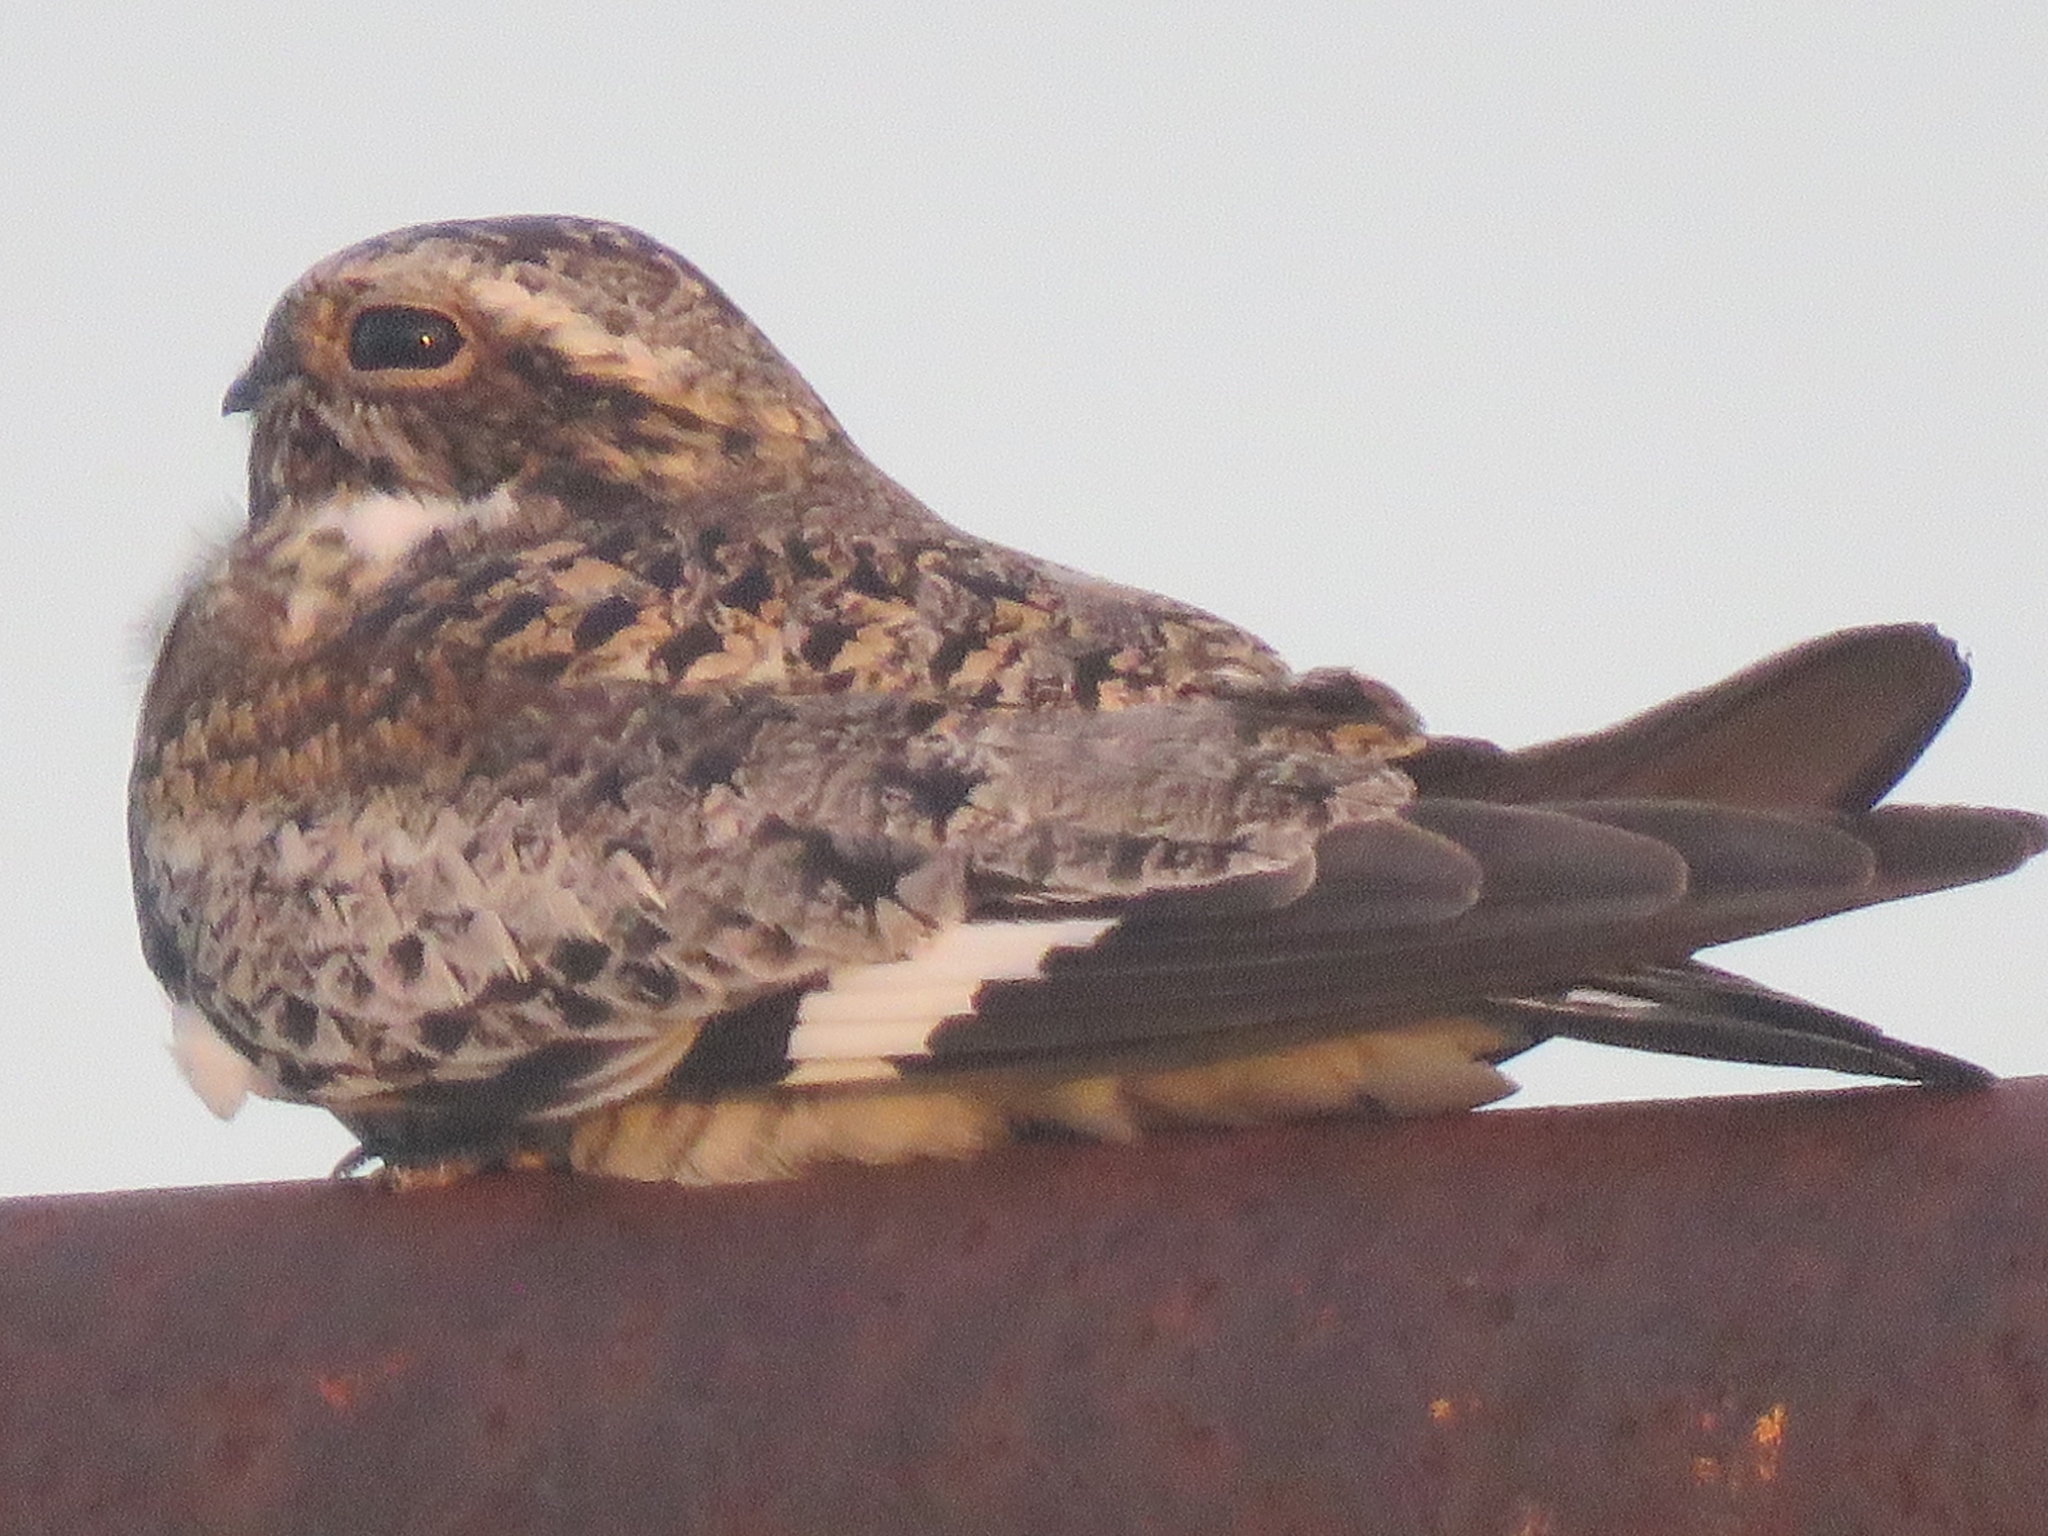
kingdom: Animalia
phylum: Chordata
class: Aves
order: Caprimulgiformes
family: Caprimulgidae
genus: Chordeiles
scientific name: Chordeiles minor
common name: Common nighthawk
